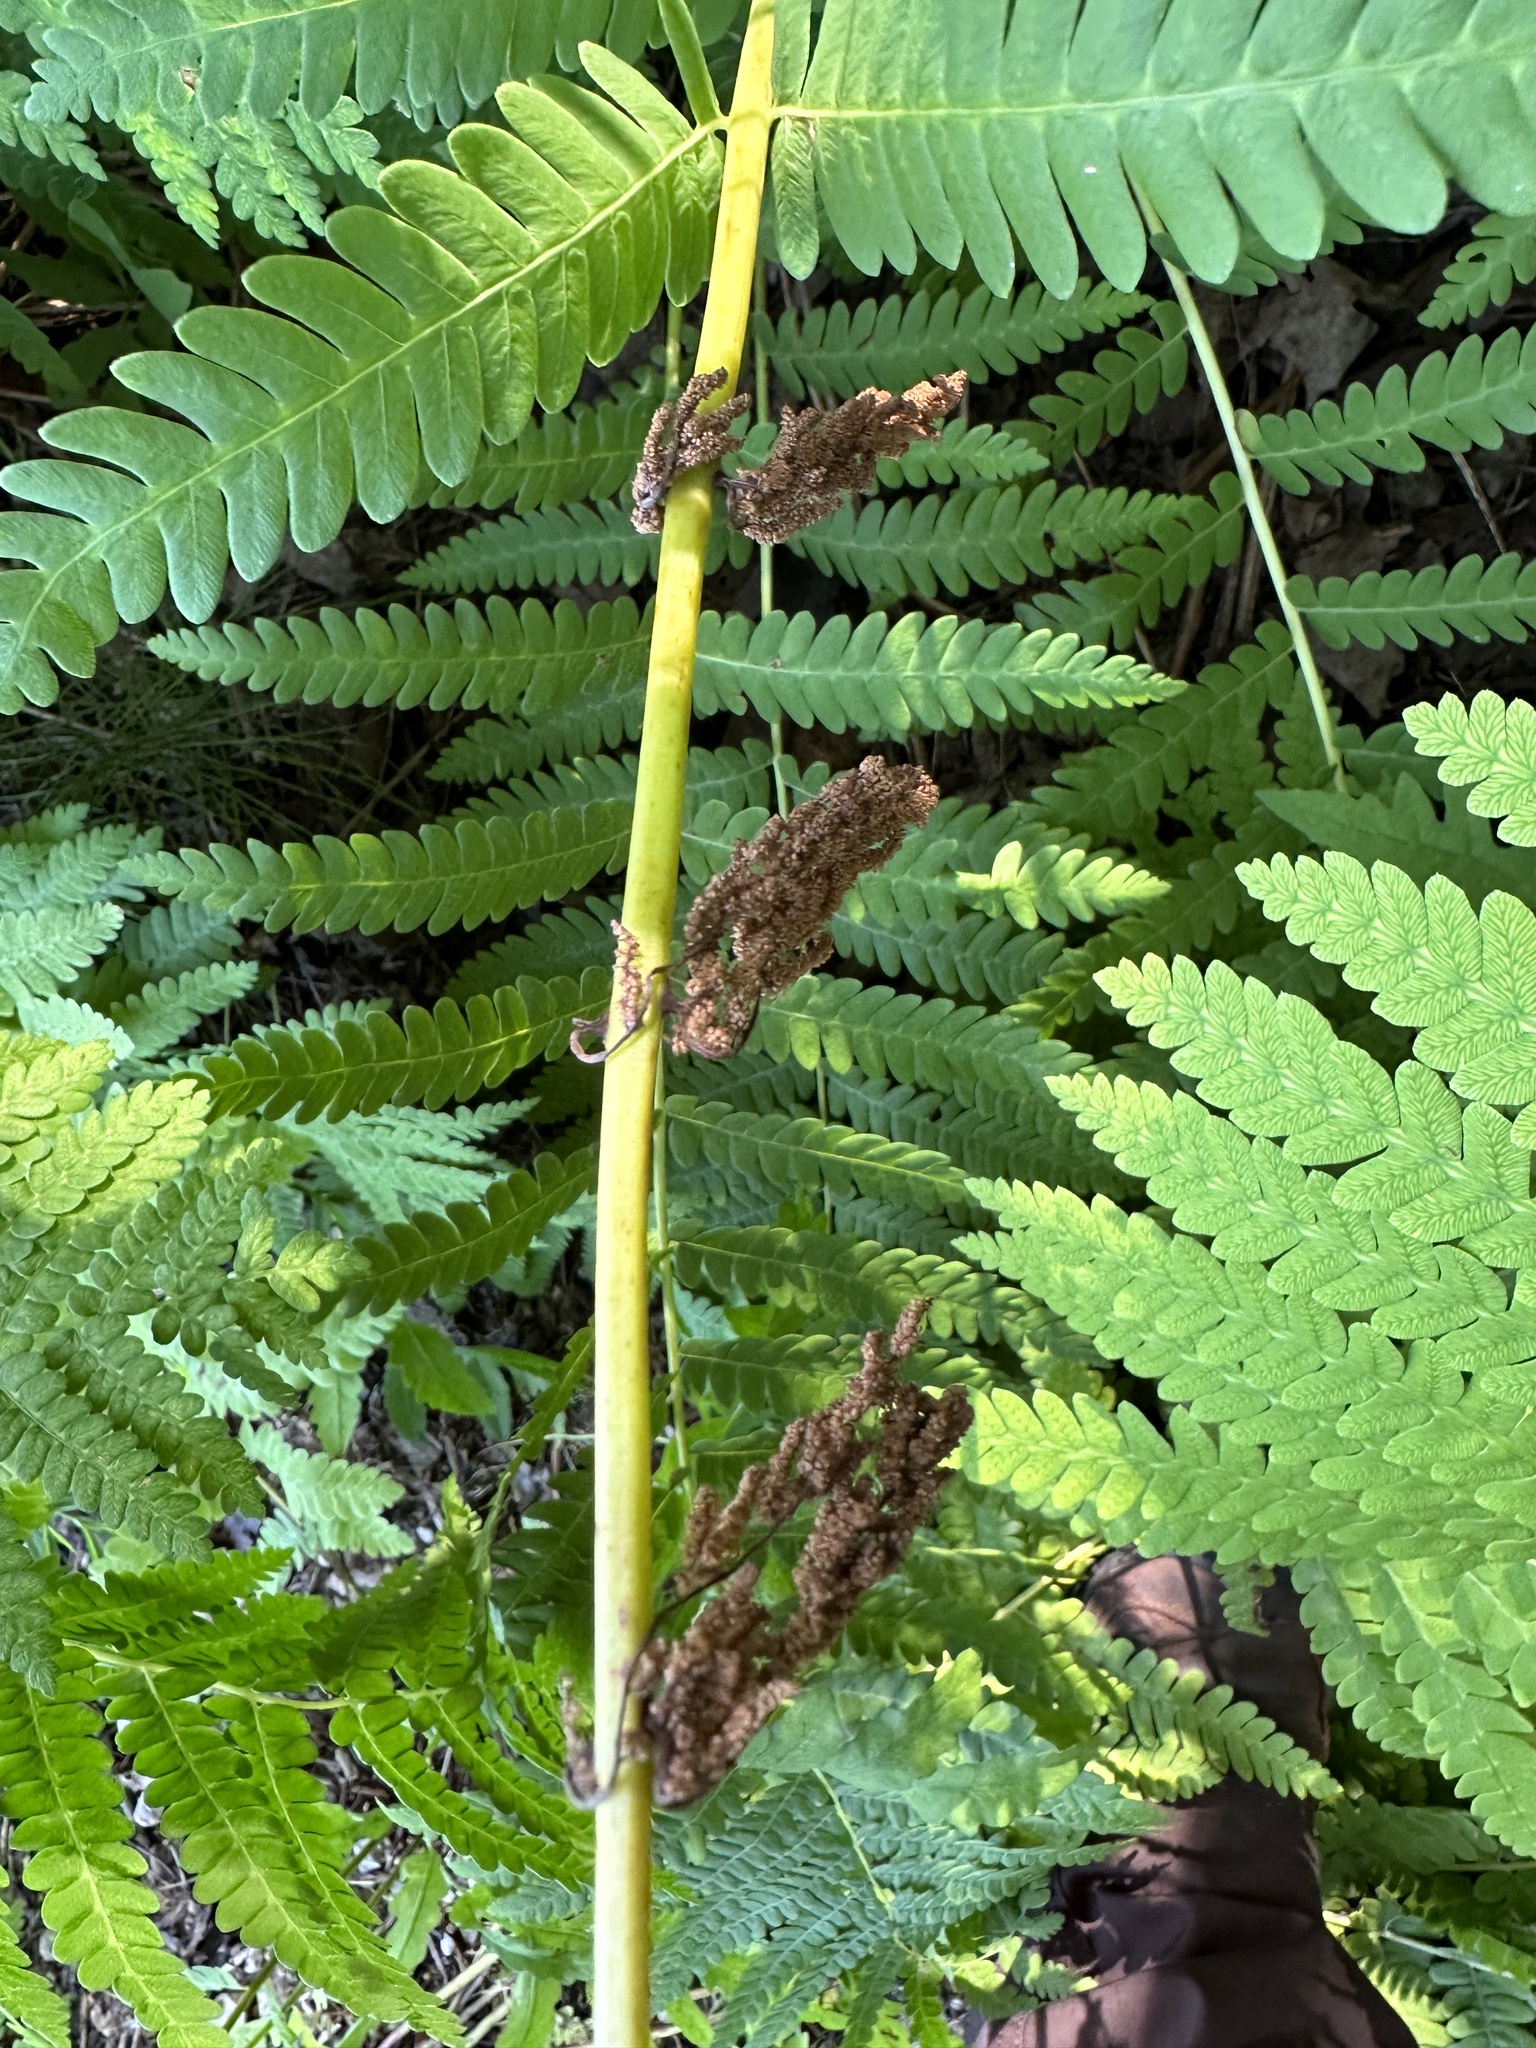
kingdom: Plantae
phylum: Tracheophyta
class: Polypodiopsida
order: Osmundales
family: Osmundaceae
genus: Claytosmunda
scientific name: Claytosmunda claytoniana
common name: Clayton's fern
